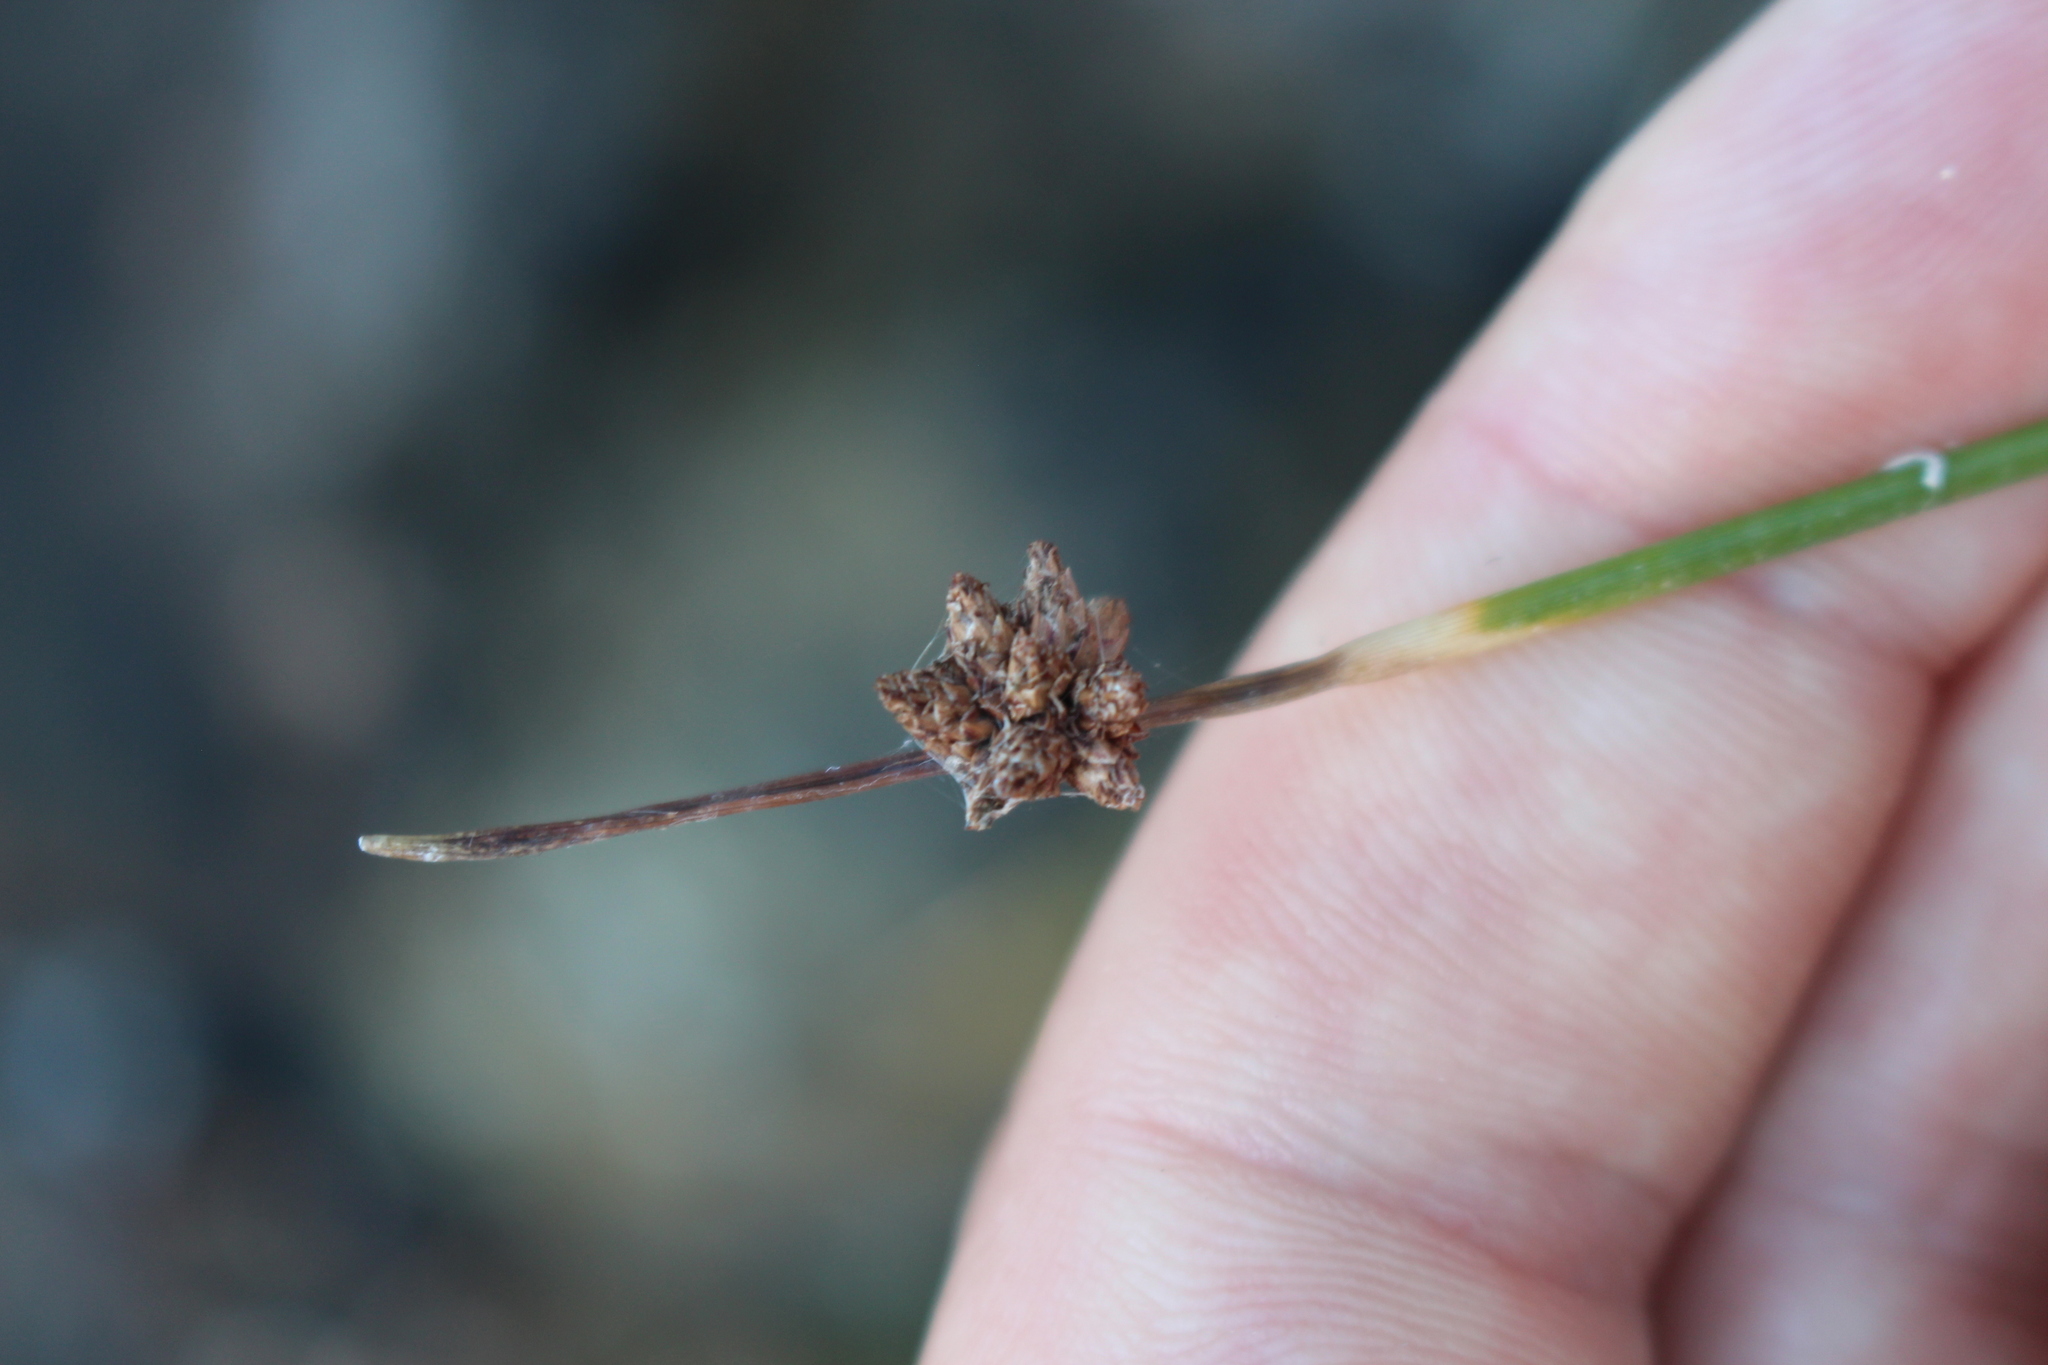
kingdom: Plantae
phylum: Tracheophyta
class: Liliopsida
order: Poales
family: Cyperaceae
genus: Ficinia
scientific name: Ficinia nodosa
